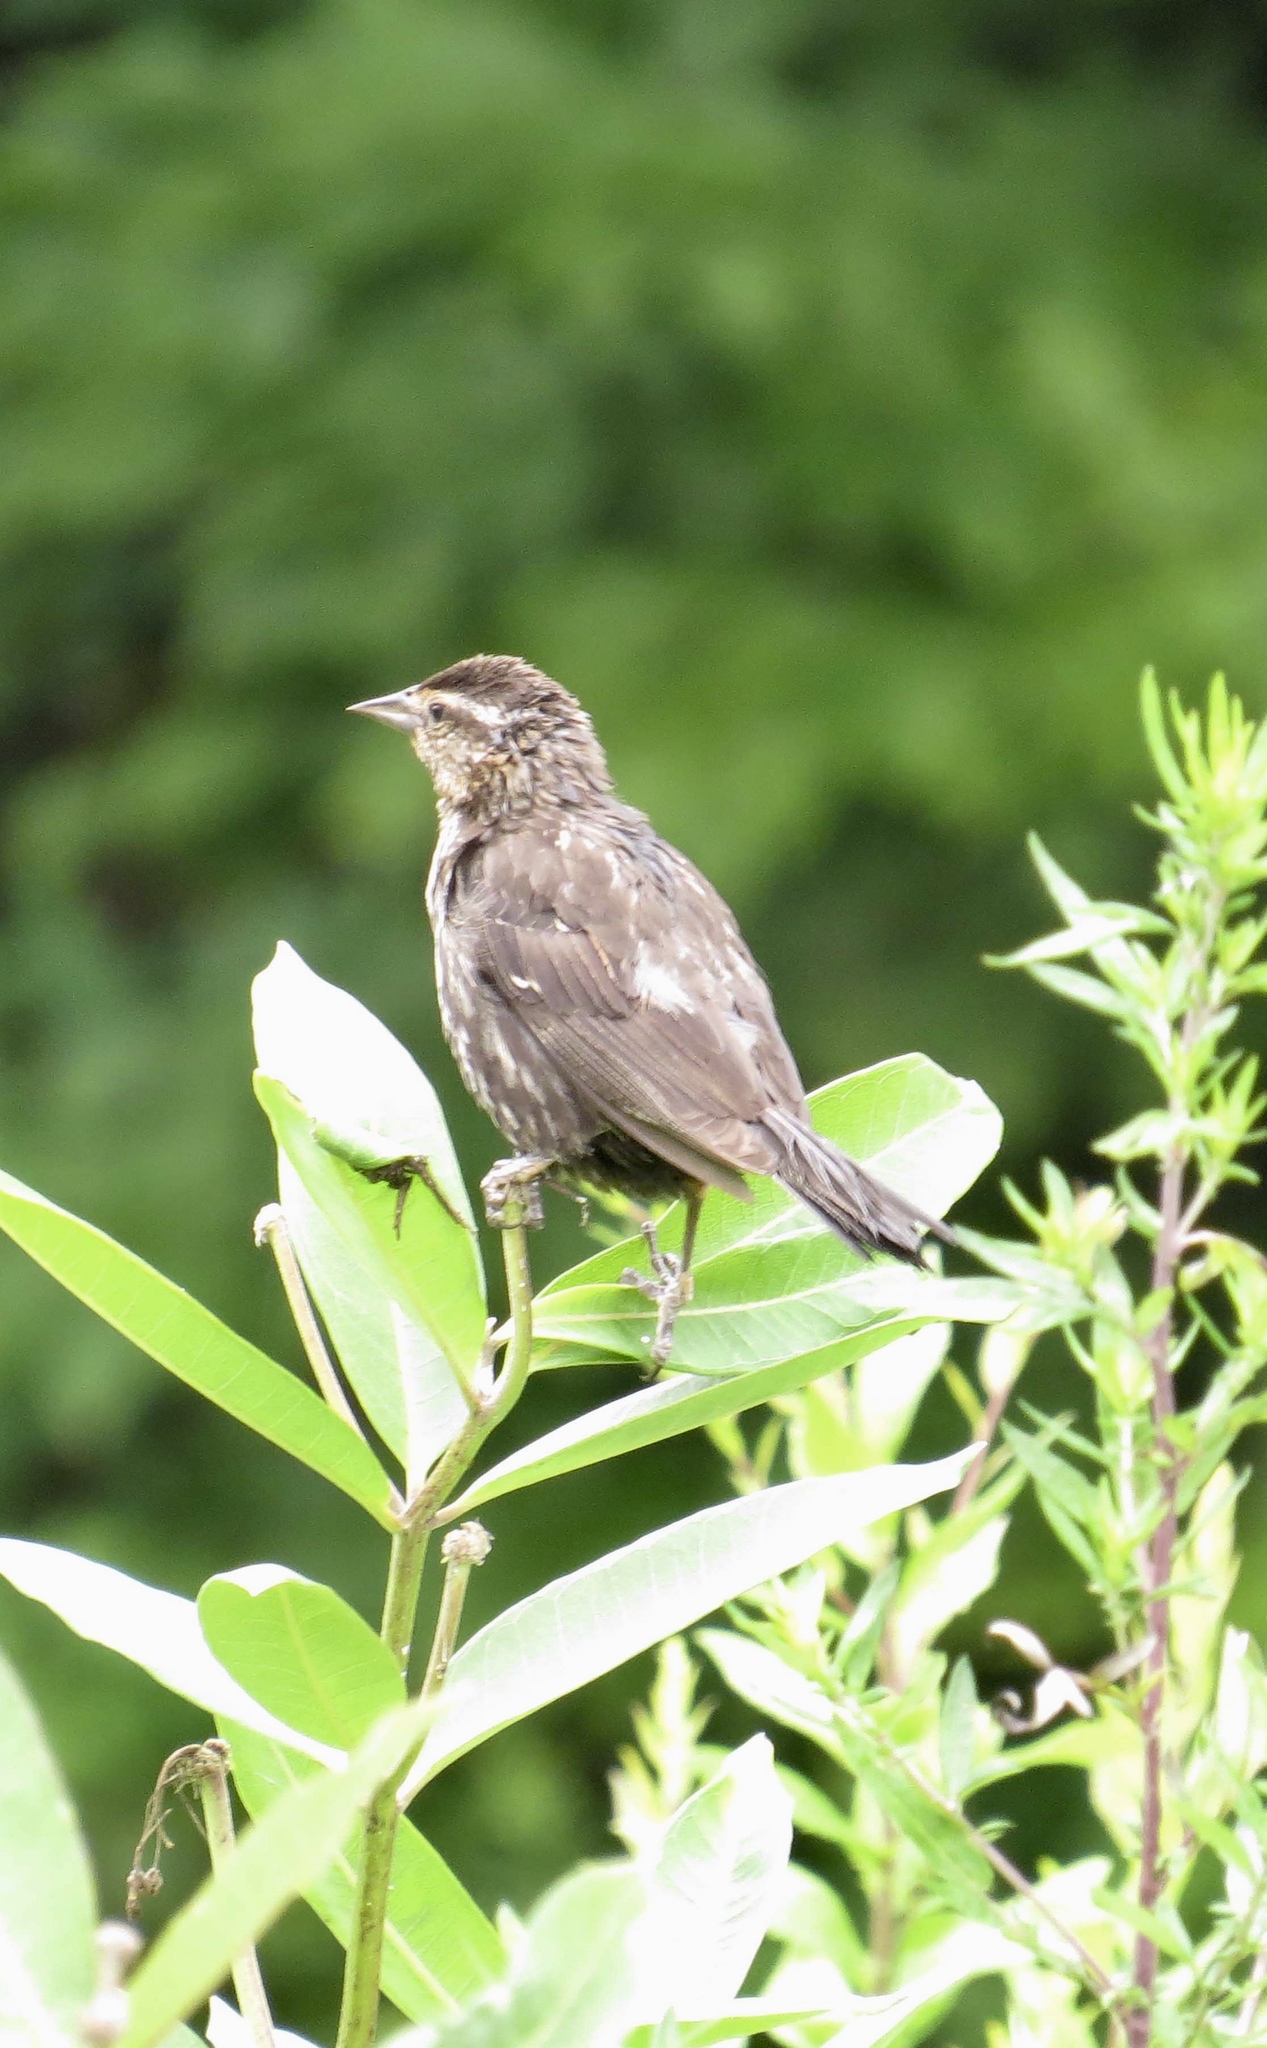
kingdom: Animalia
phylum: Chordata
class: Aves
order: Passeriformes
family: Icteridae
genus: Agelaius
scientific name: Agelaius phoeniceus
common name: Red-winged blackbird
